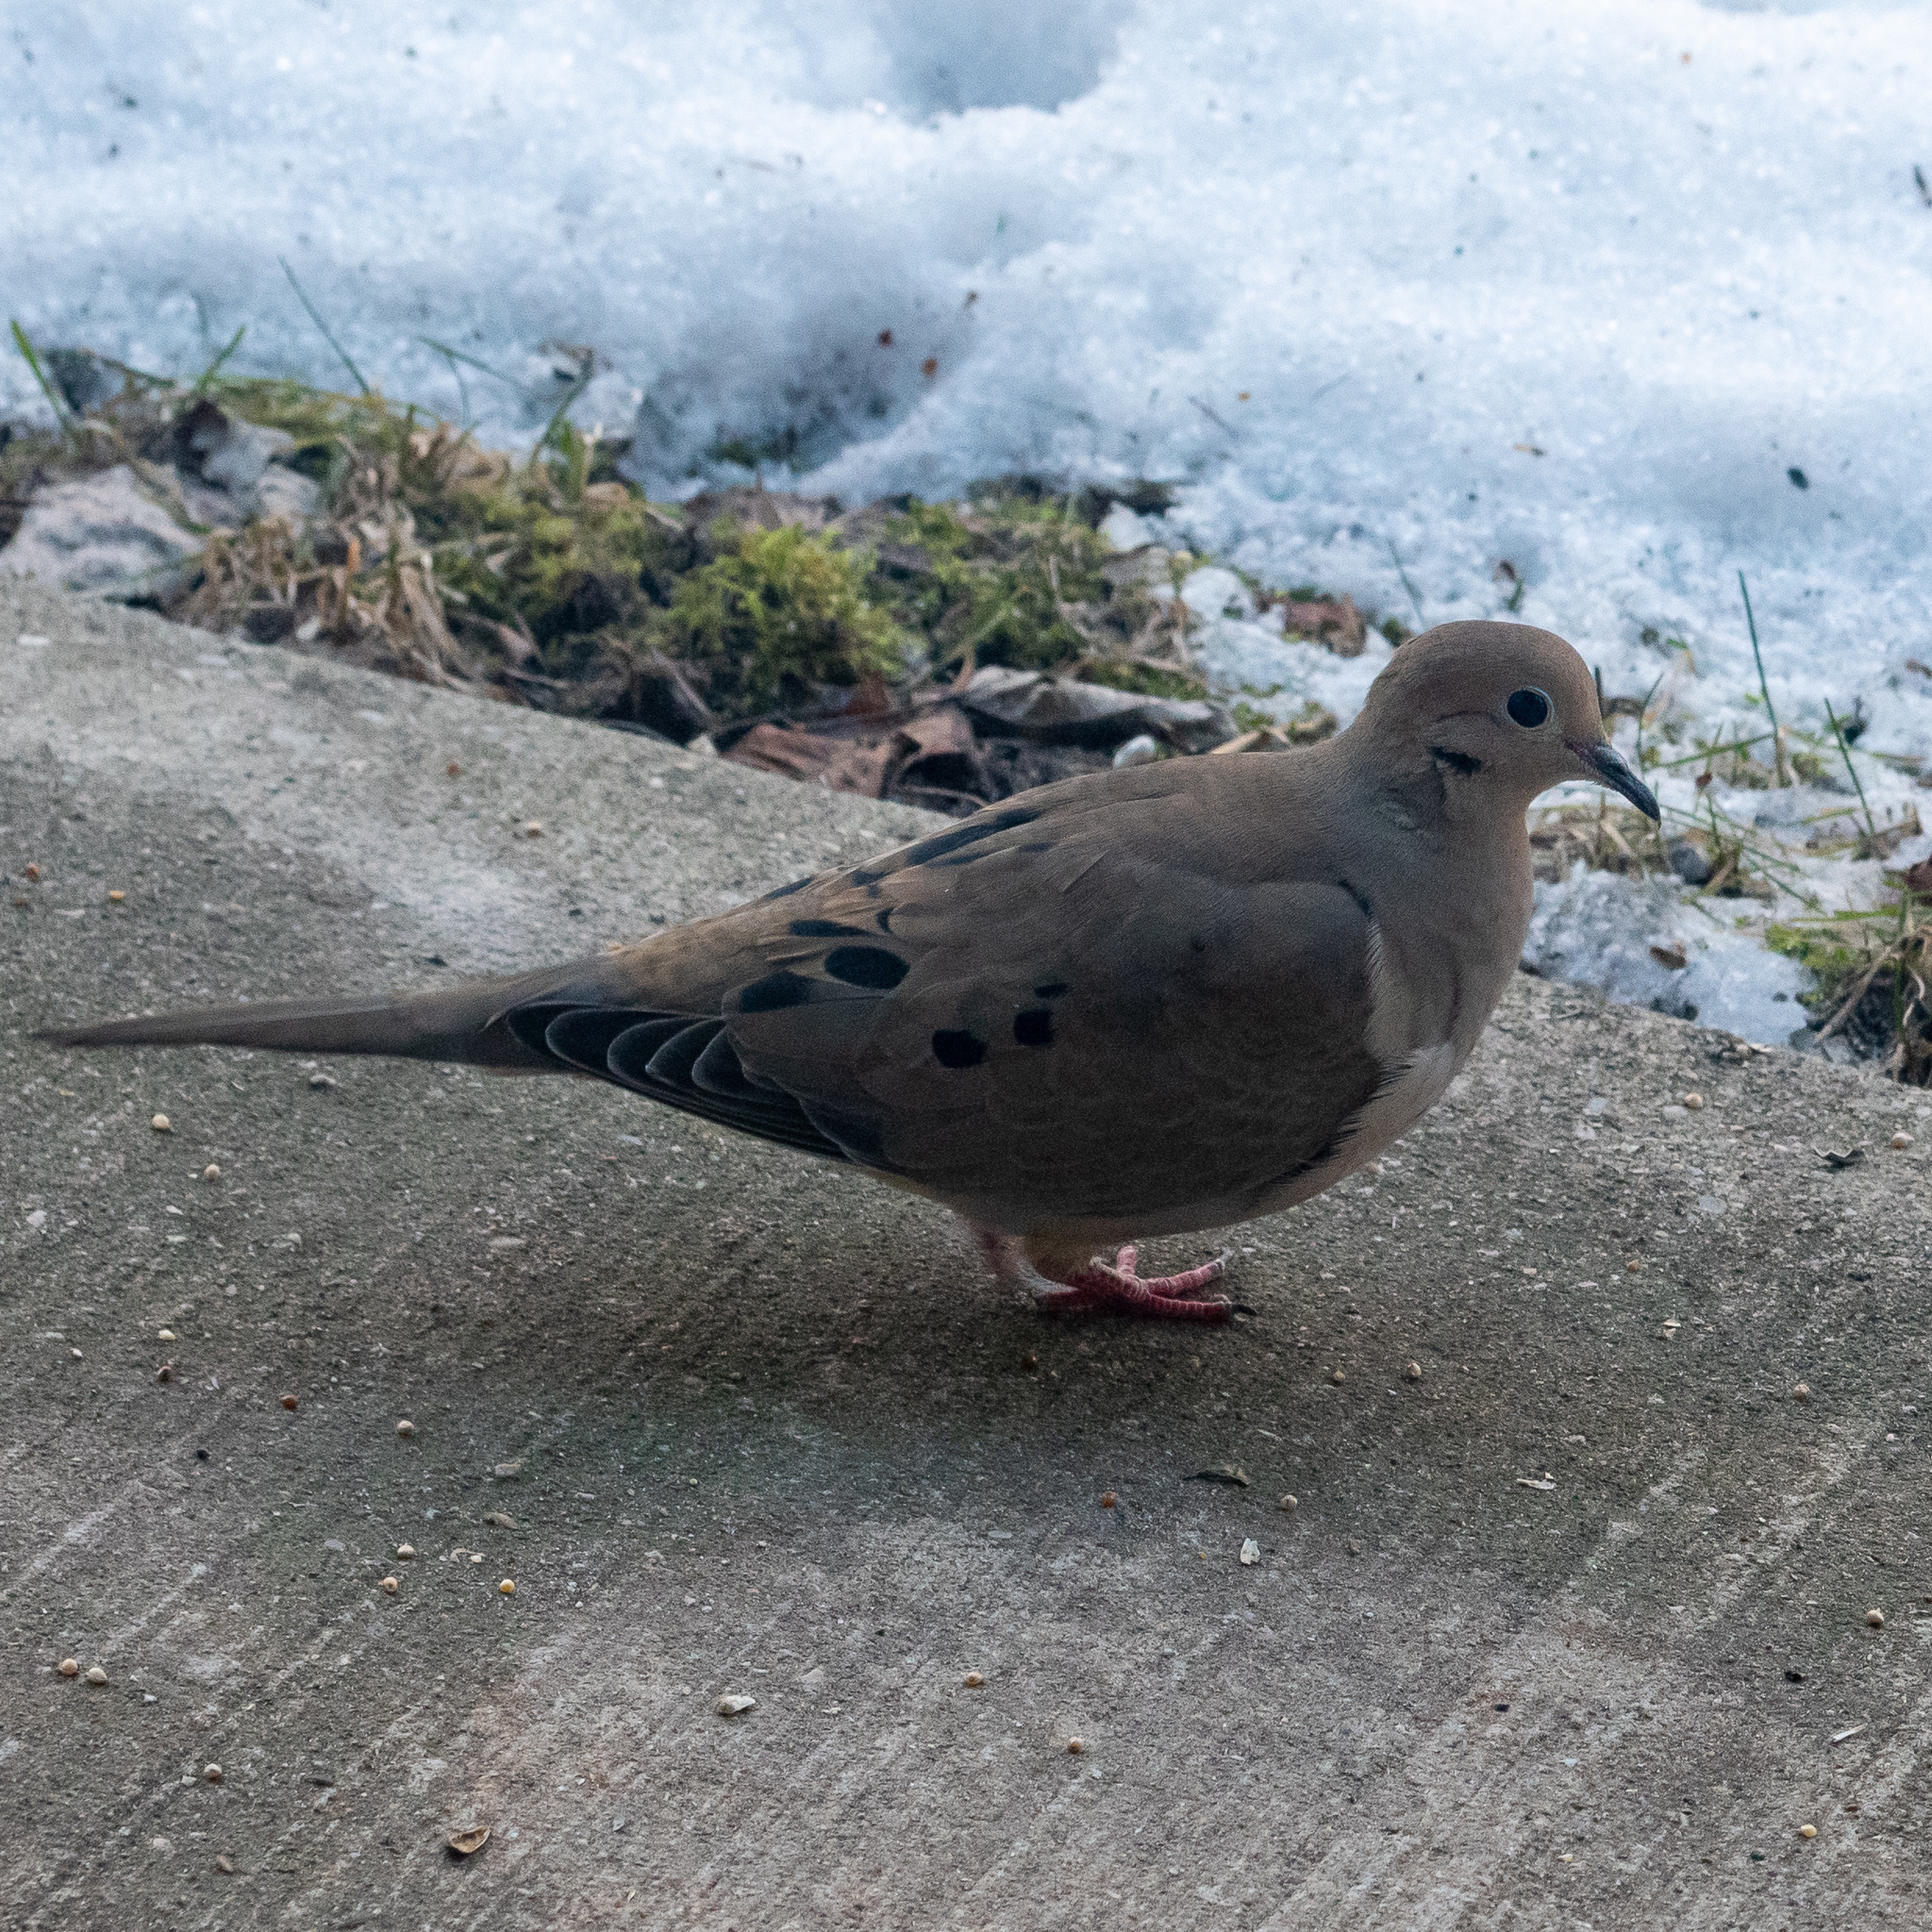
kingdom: Animalia
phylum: Chordata
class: Aves
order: Columbiformes
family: Columbidae
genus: Zenaida
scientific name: Zenaida macroura
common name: Mourning dove
